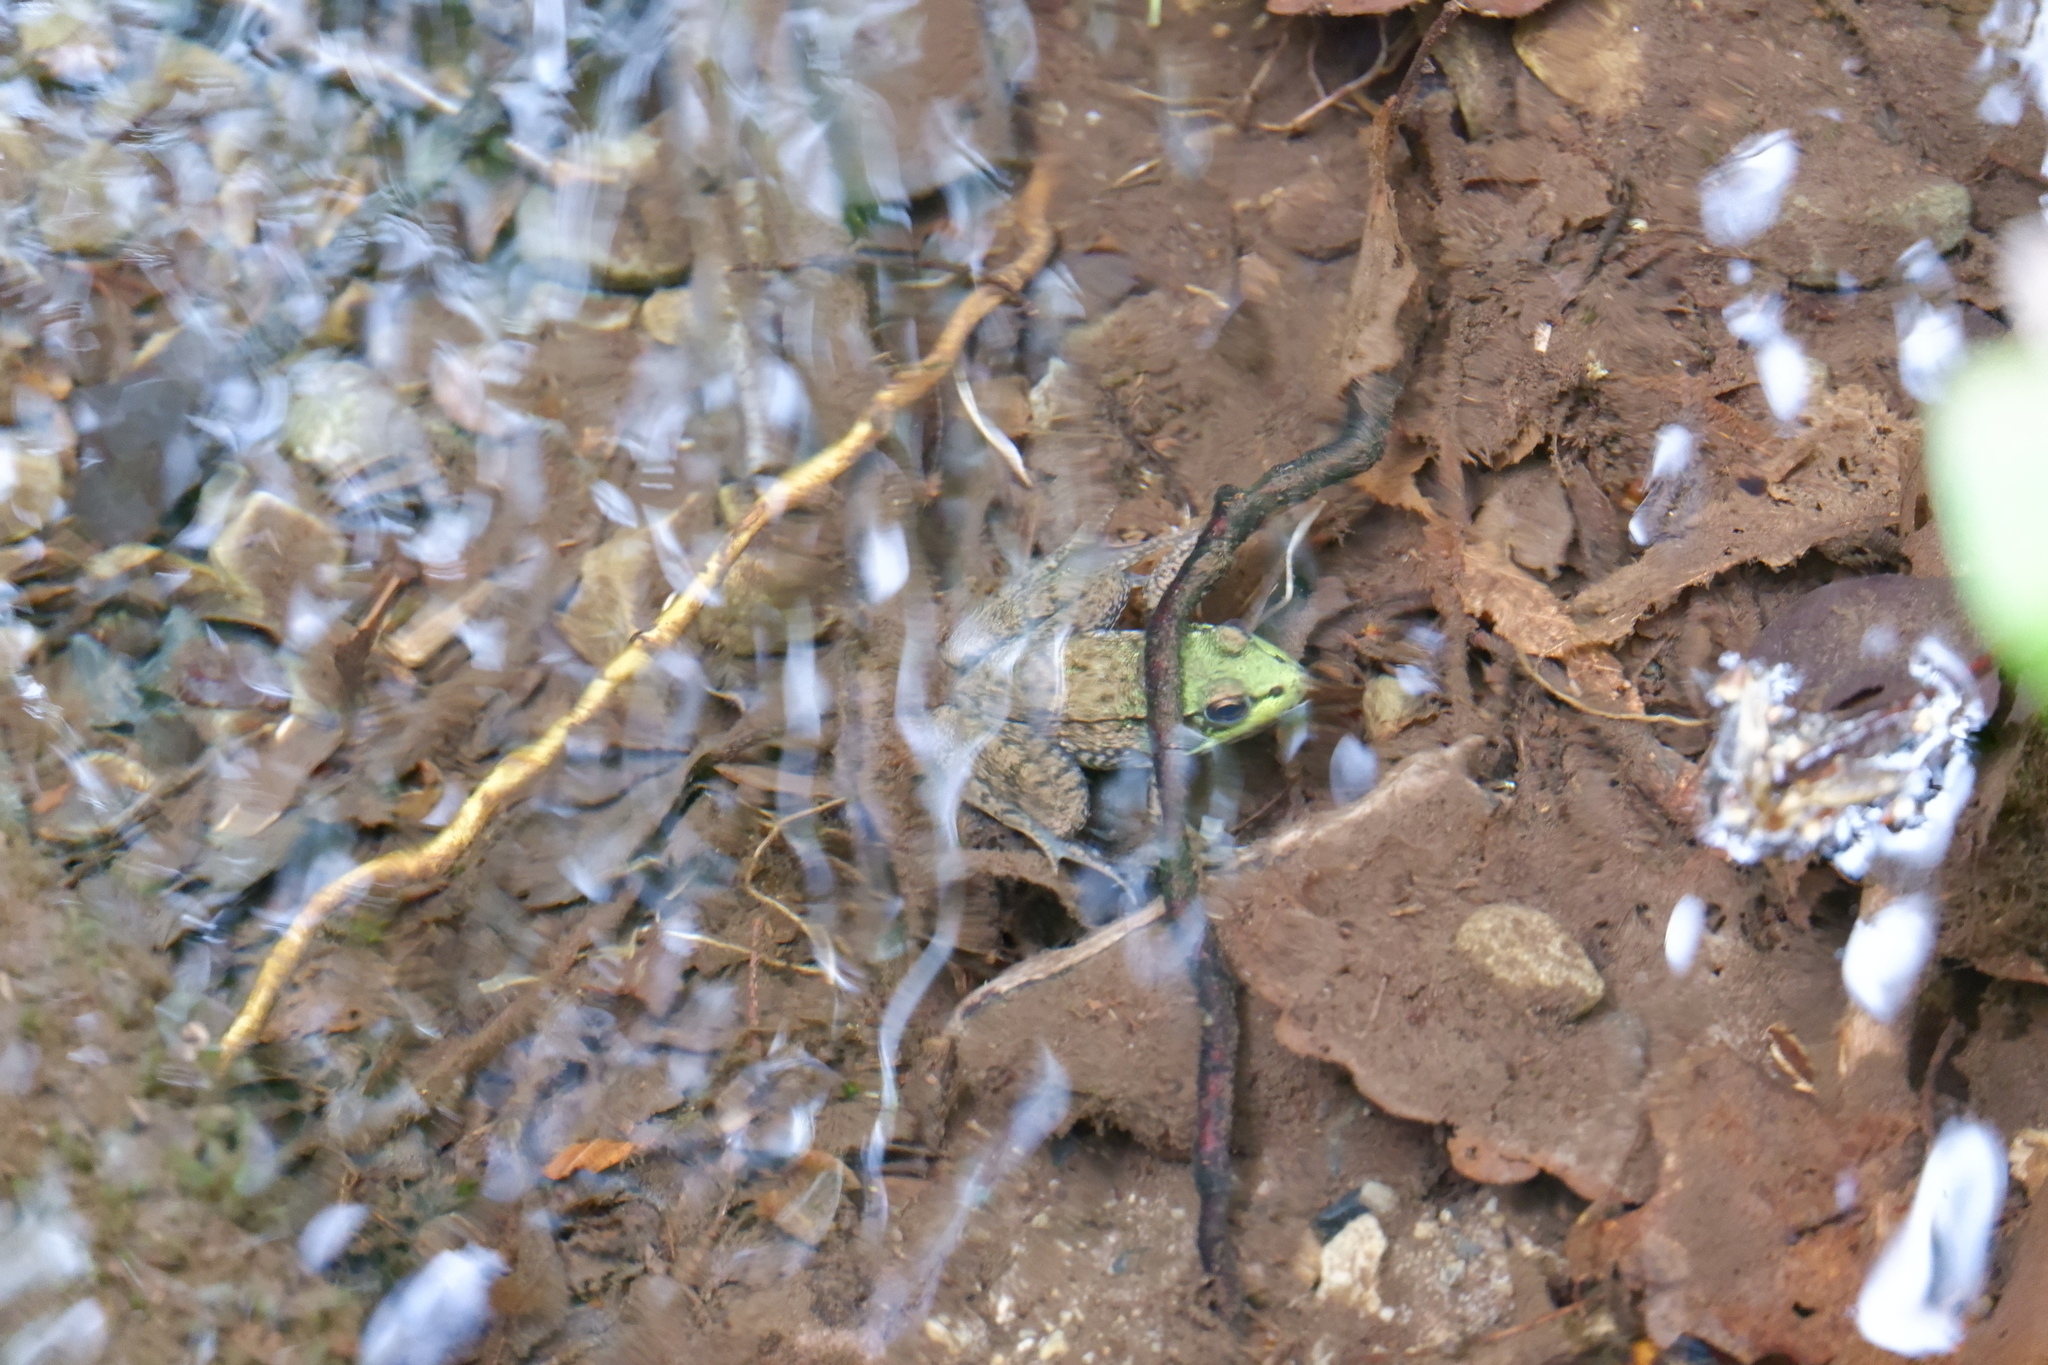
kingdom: Animalia
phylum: Chordata
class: Amphibia
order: Anura
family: Ranidae
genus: Lithobates
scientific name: Lithobates clamitans
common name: Green frog
